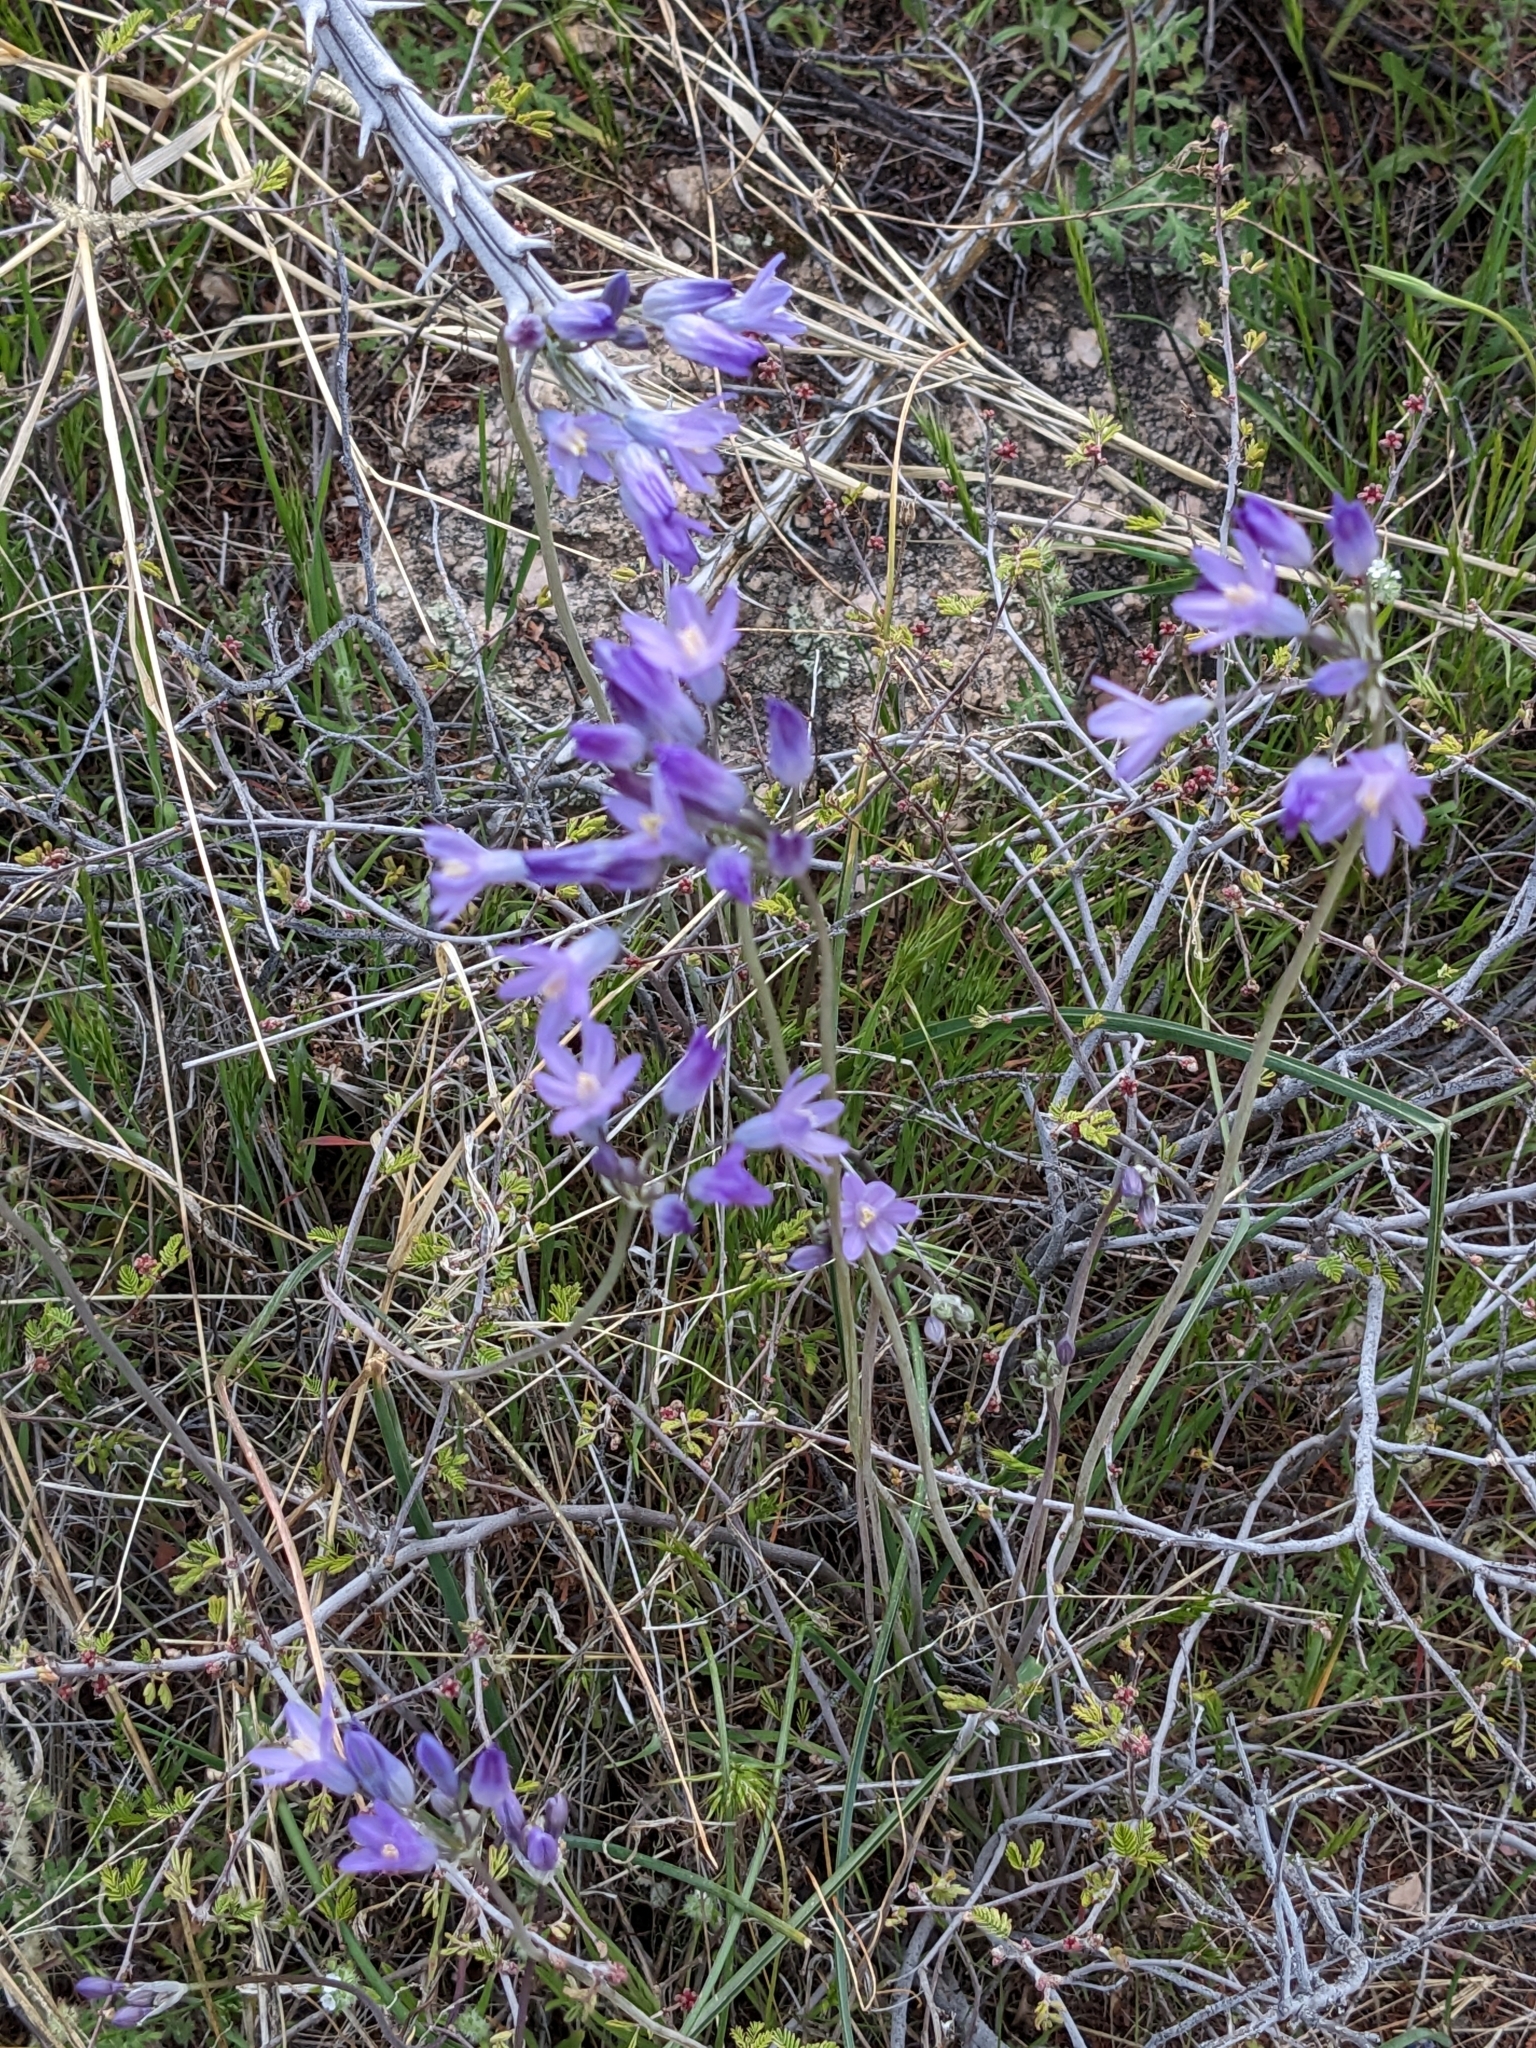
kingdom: Plantae
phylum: Tracheophyta
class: Liliopsida
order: Asparagales
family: Asparagaceae
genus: Dipterostemon
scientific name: Dipterostemon capitatus
